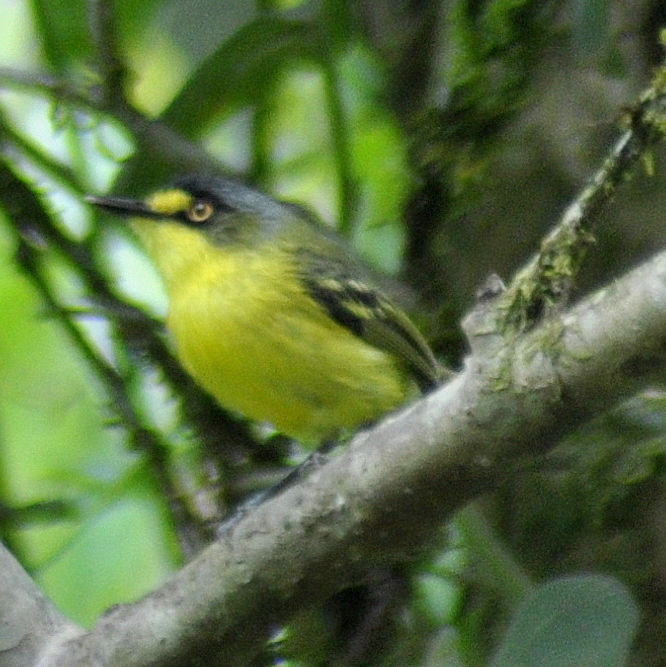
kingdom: Animalia
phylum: Chordata
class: Aves
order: Passeriformes
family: Tyrannidae
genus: Todirostrum
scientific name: Todirostrum poliocephalum
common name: Yellow-lored tody-flycatcher
